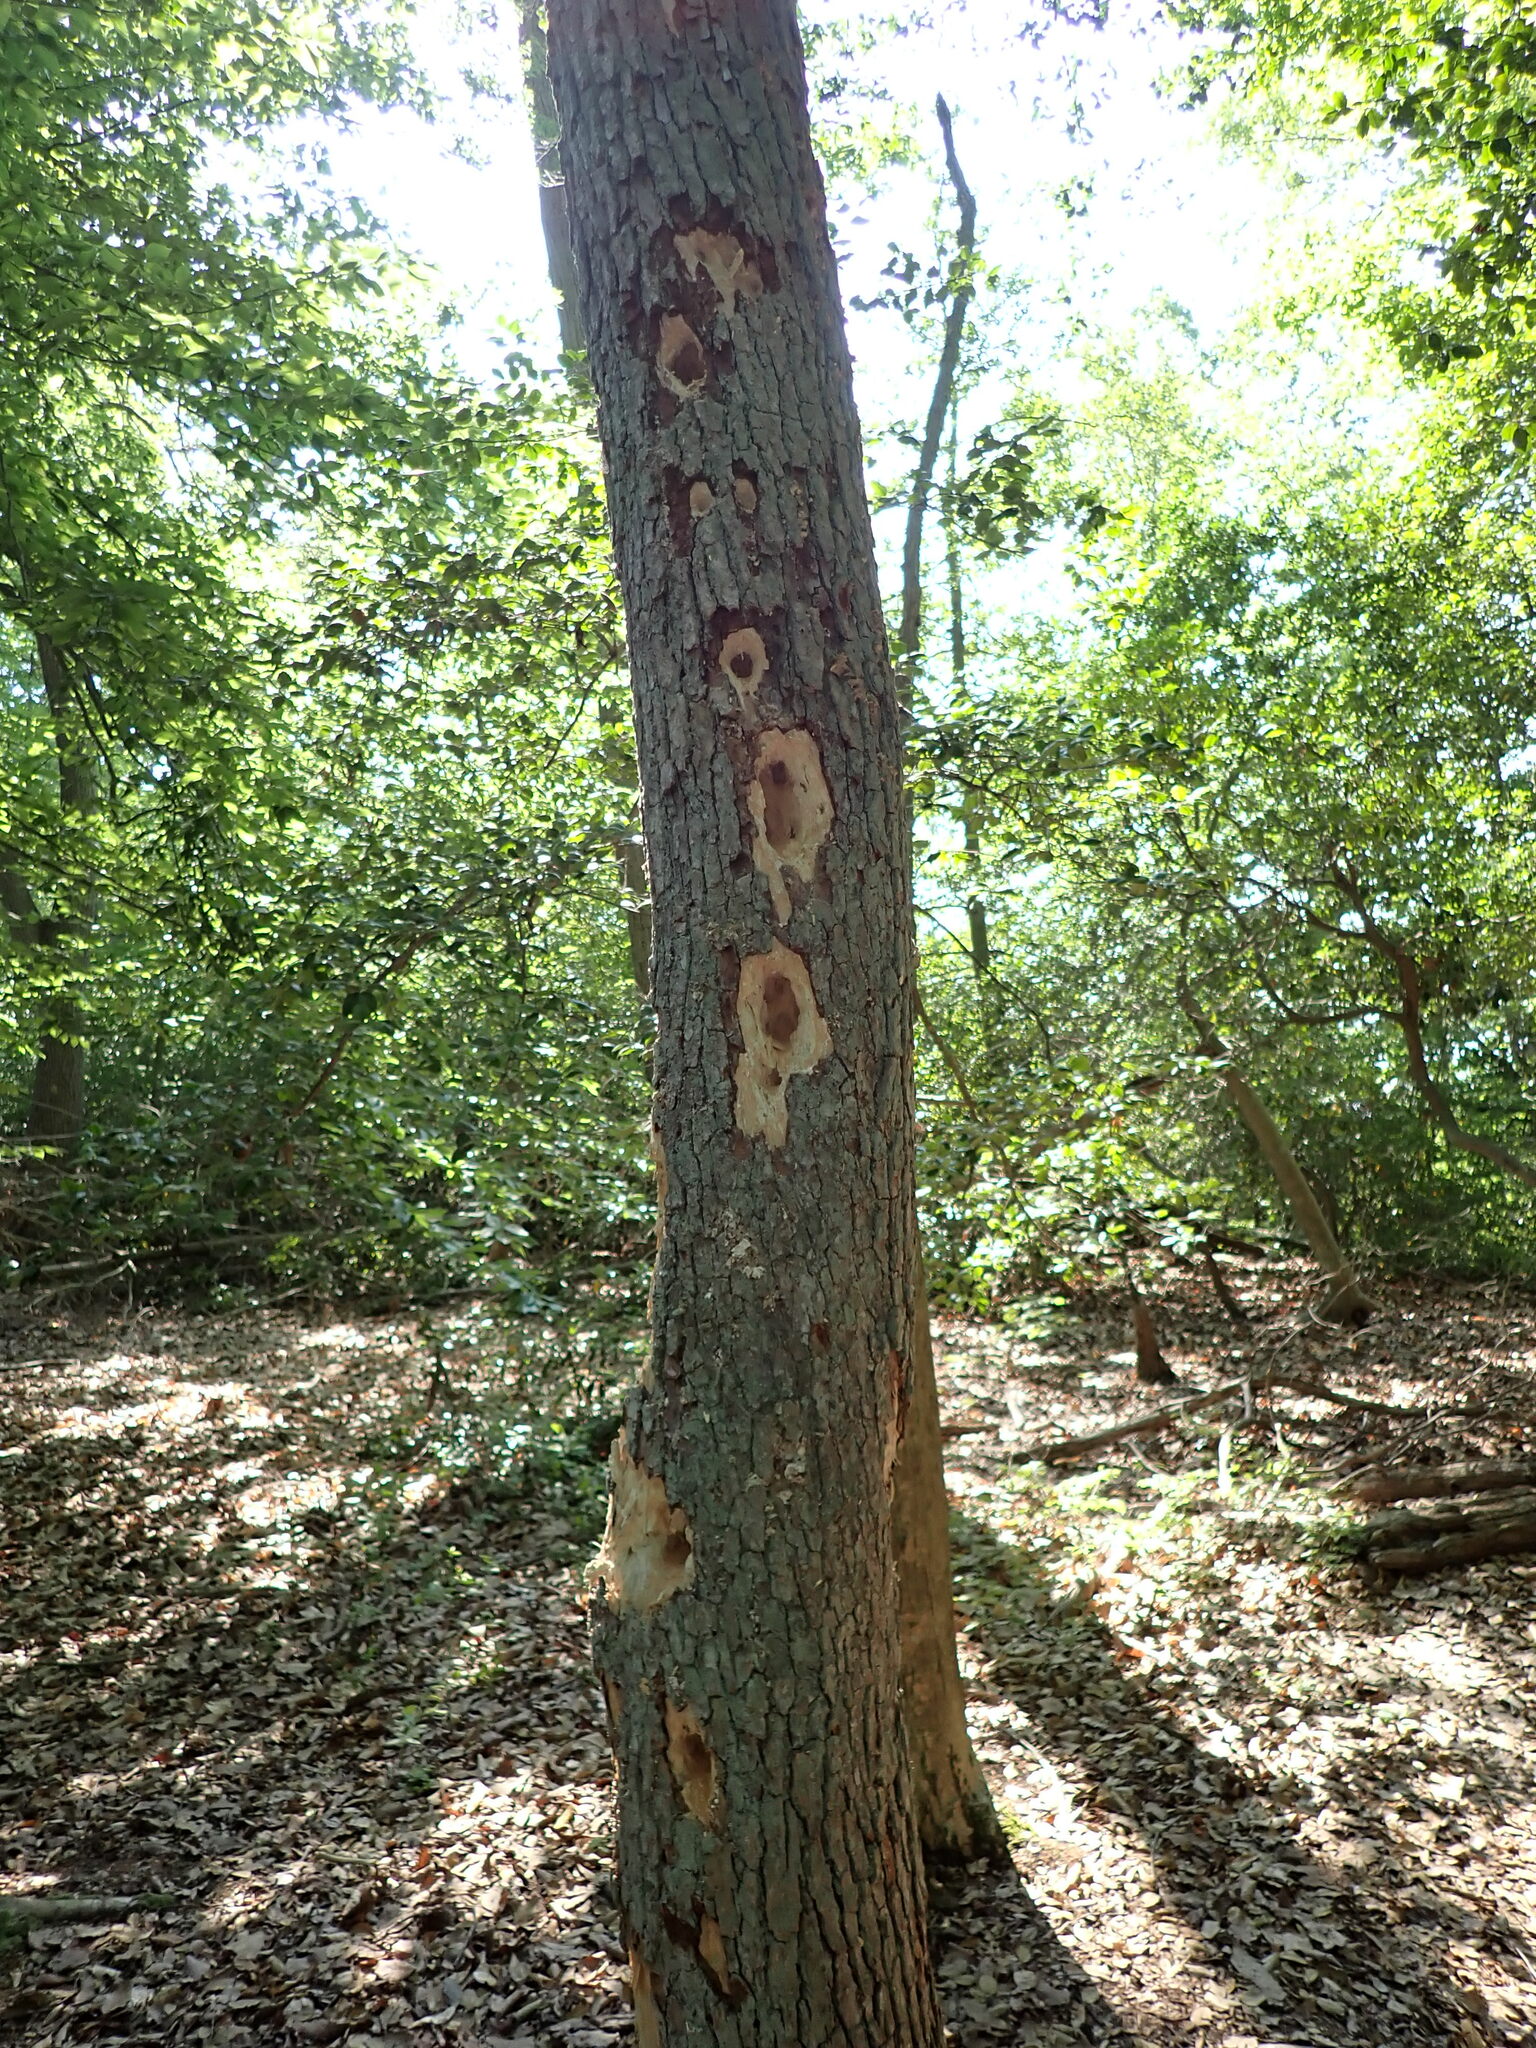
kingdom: Animalia
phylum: Chordata
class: Aves
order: Piciformes
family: Picidae
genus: Dryocopus
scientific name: Dryocopus pileatus
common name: Pileated woodpecker
